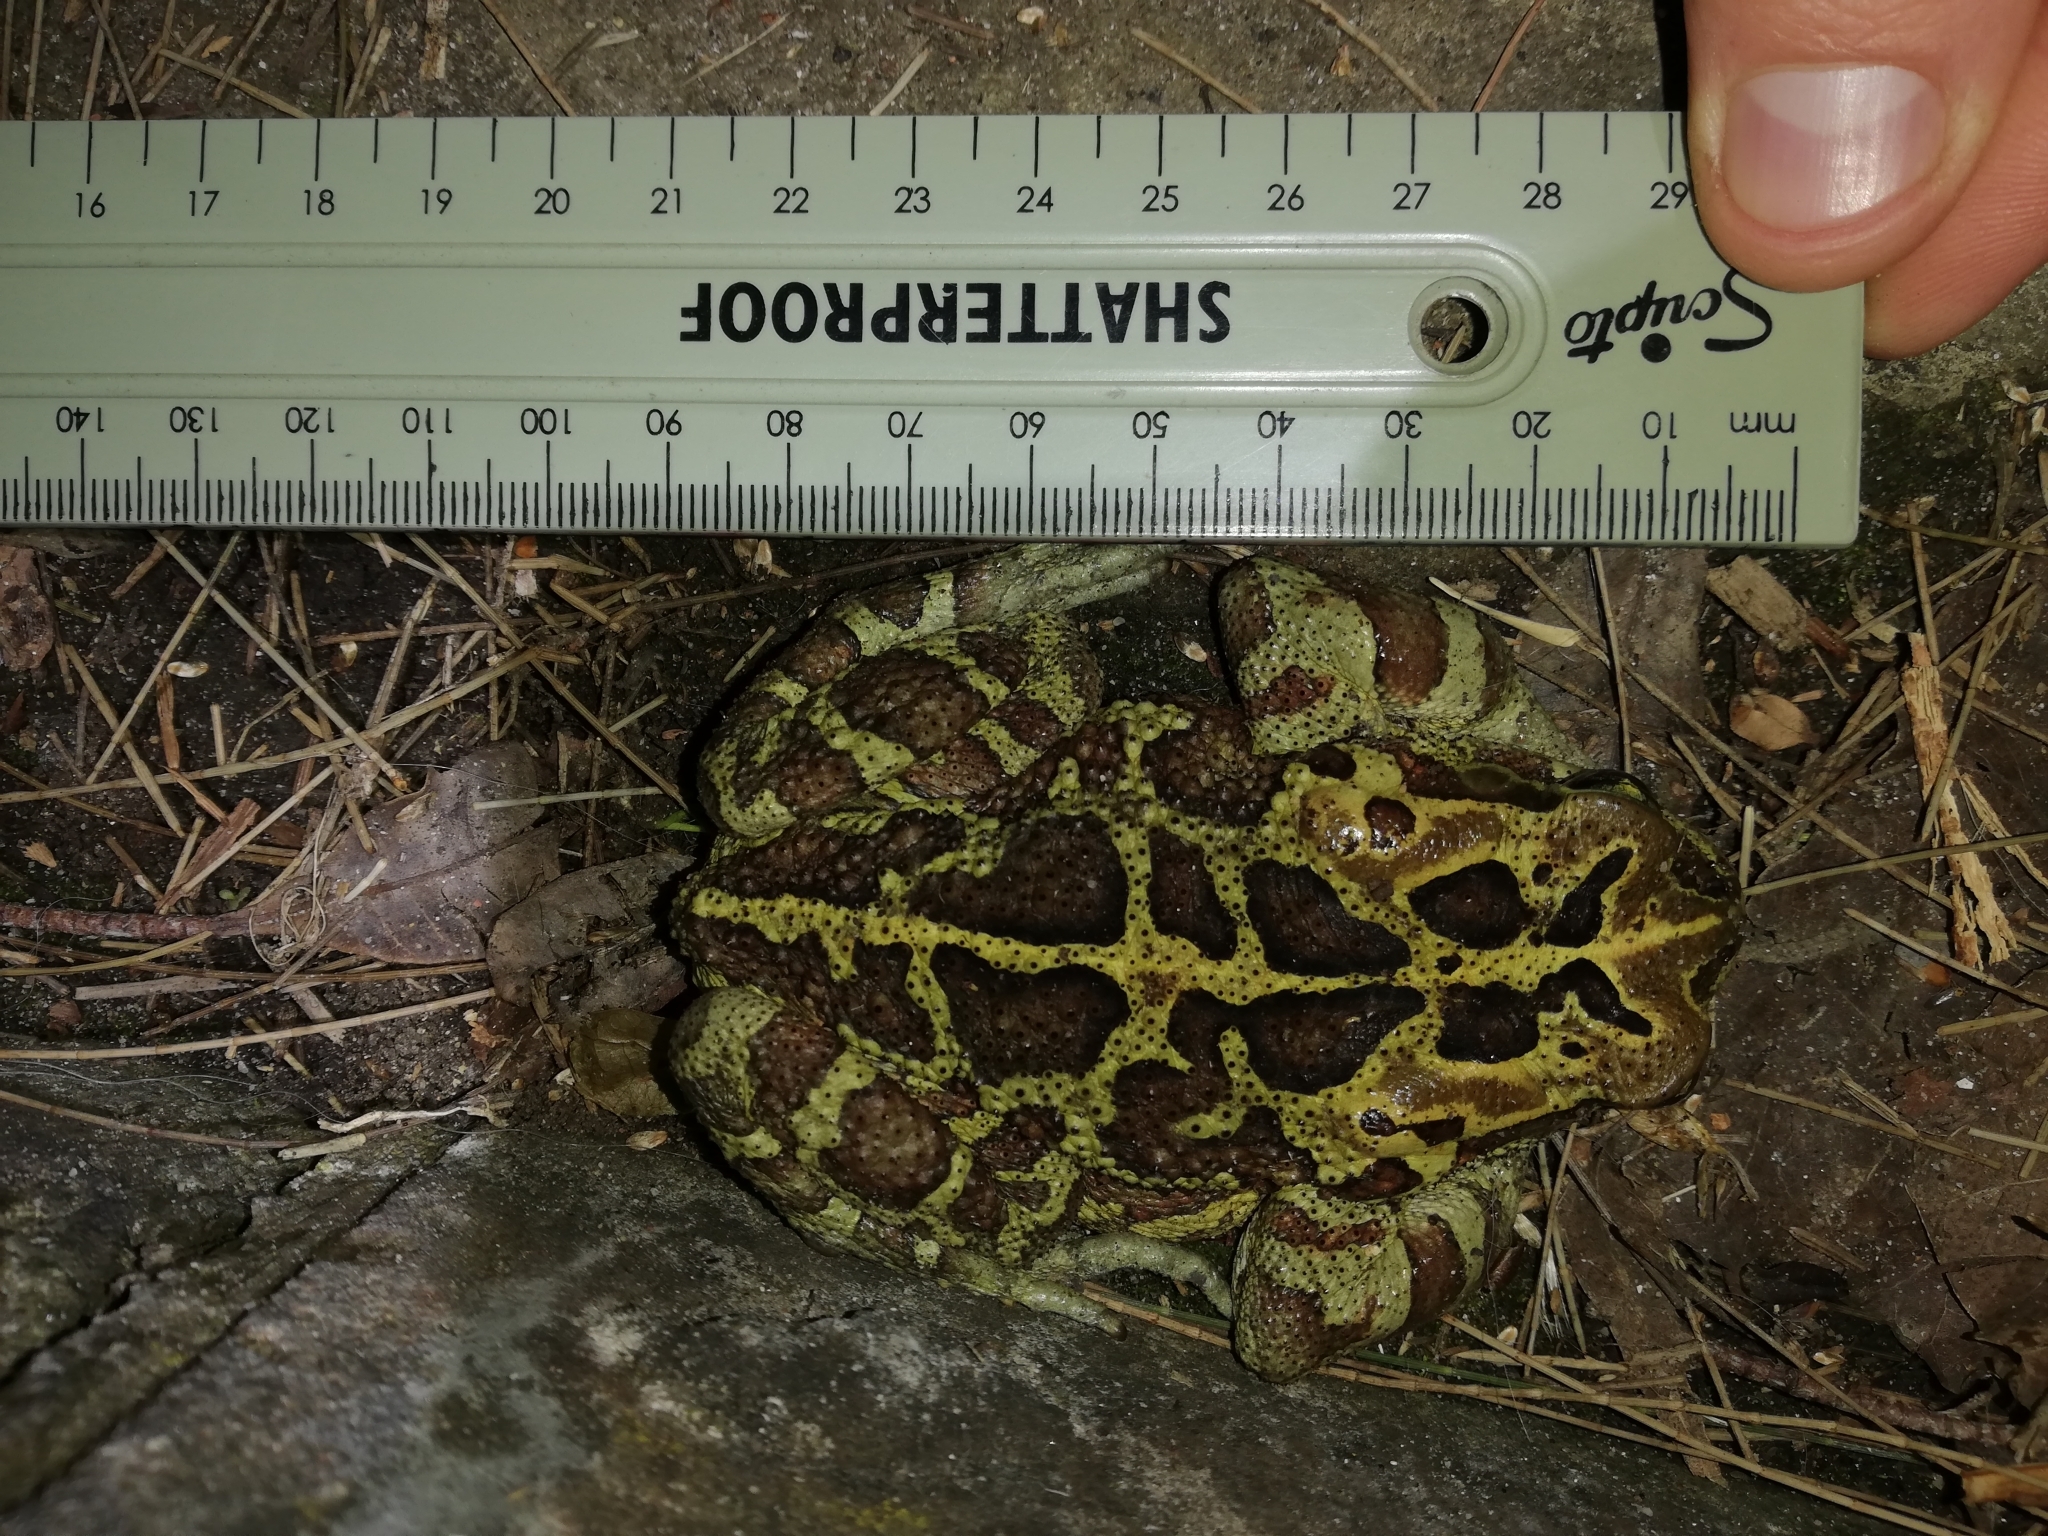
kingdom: Animalia
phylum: Chordata
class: Amphibia
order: Anura
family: Bufonidae
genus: Sclerophrys
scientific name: Sclerophrys pantherina
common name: Panther toad
